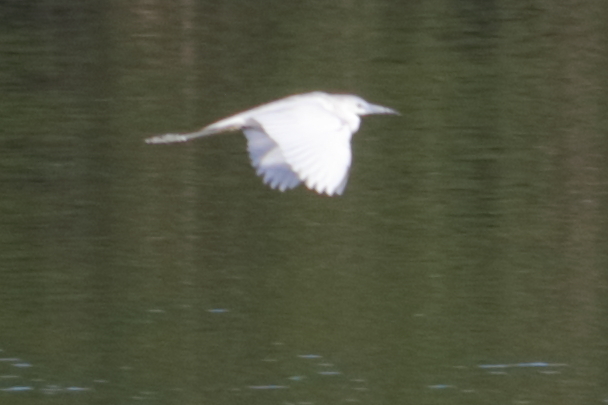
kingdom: Animalia
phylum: Chordata
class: Aves
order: Pelecaniformes
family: Ardeidae
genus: Egretta
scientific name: Egretta caerulea
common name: Little blue heron
